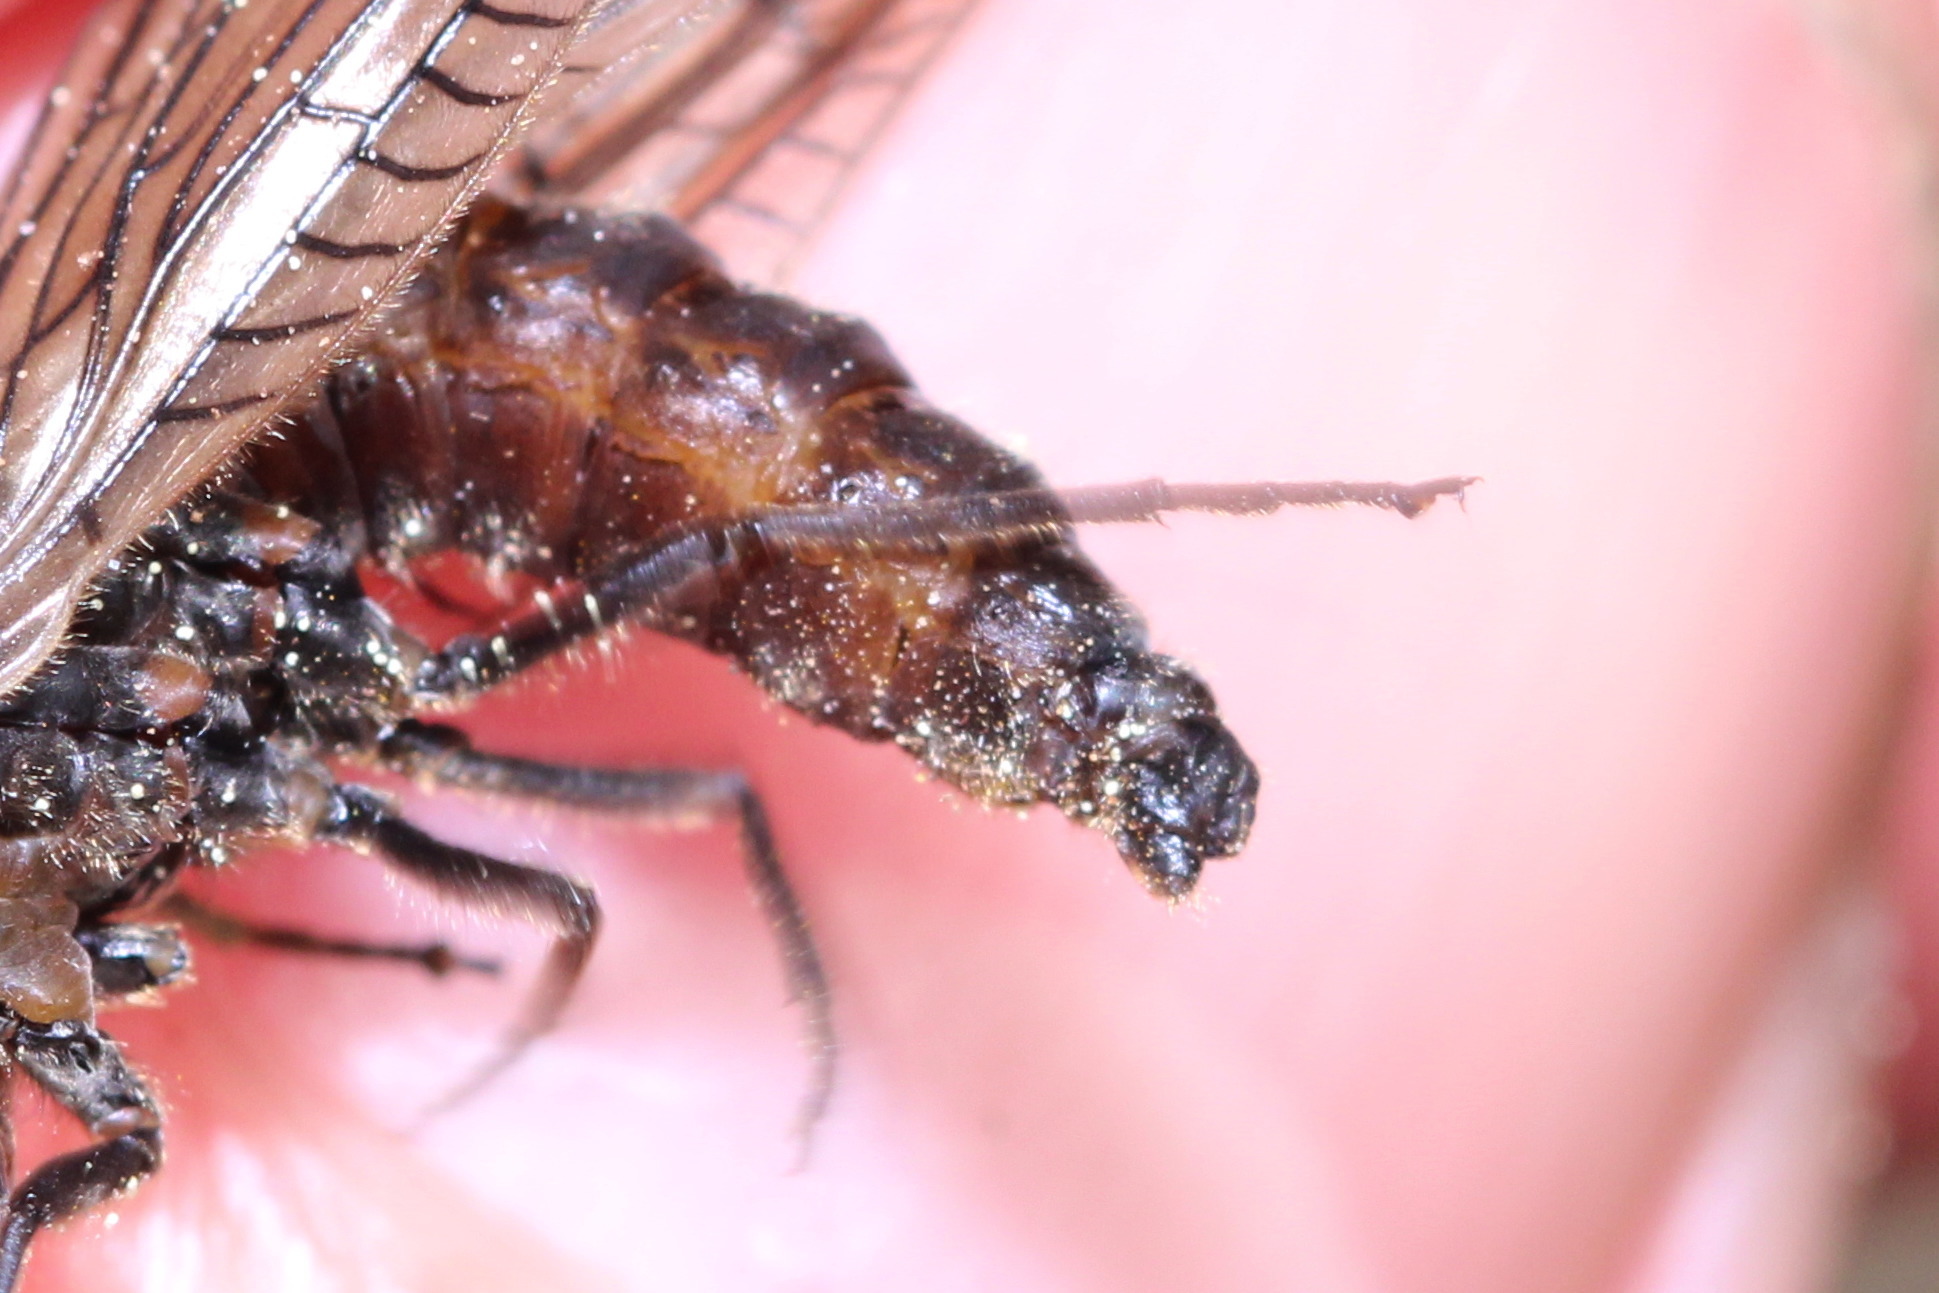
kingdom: Animalia
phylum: Arthropoda
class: Insecta
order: Megaloptera
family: Sialidae
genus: Sialis
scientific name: Sialis lutaria
